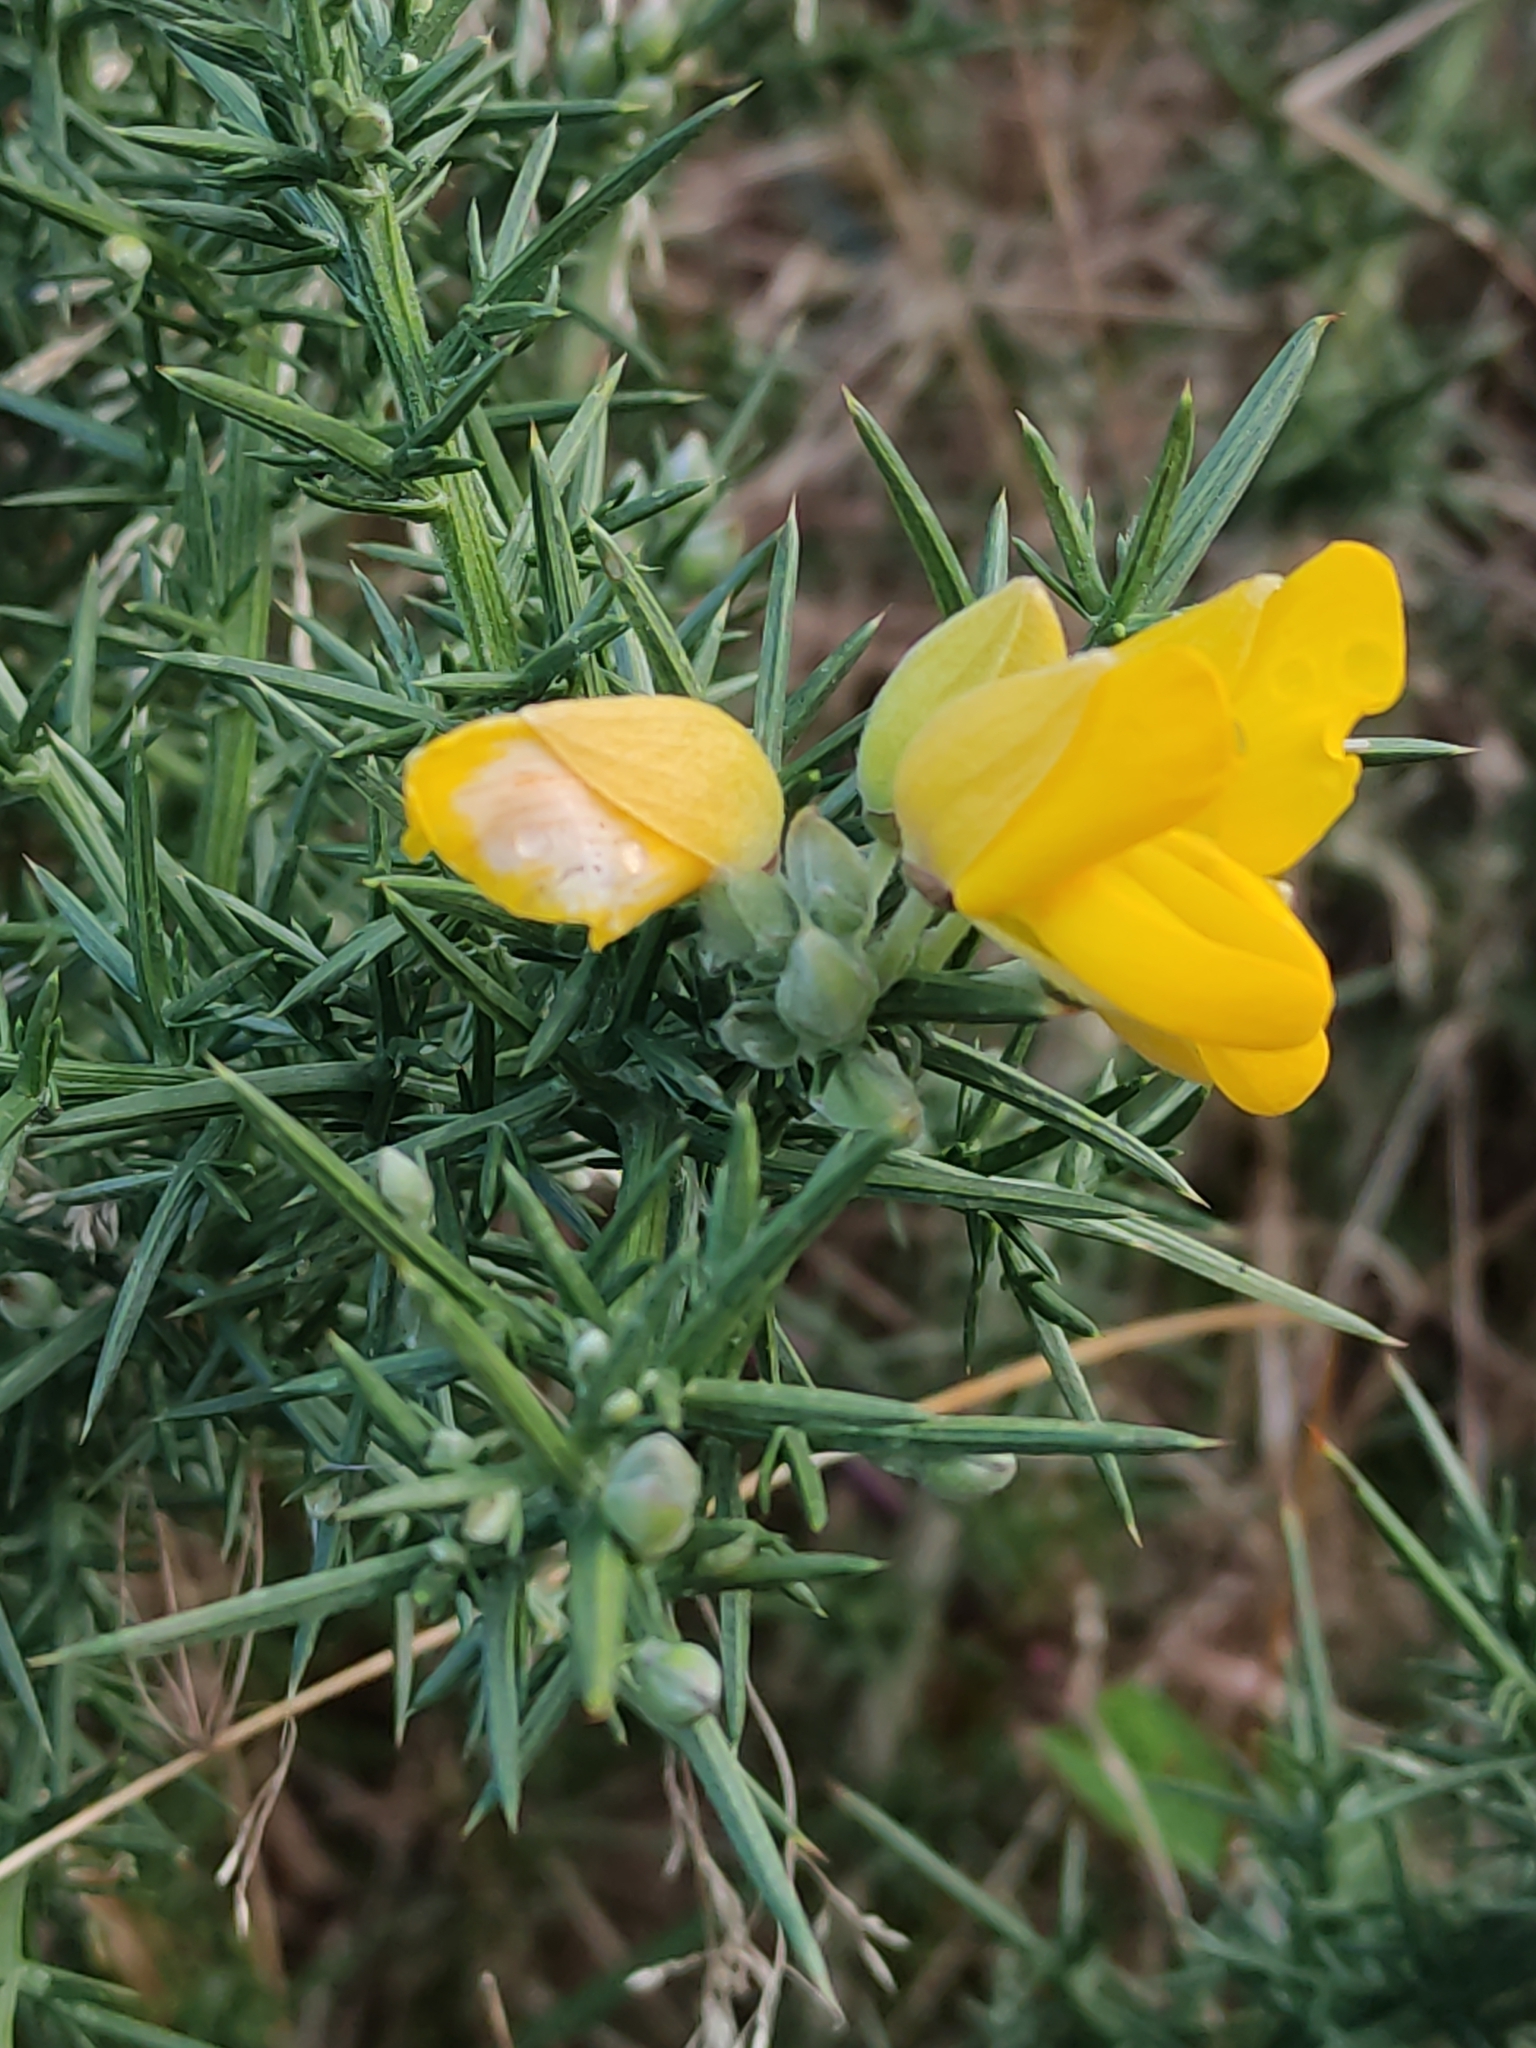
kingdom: Plantae
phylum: Tracheophyta
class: Magnoliopsida
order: Fabales
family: Fabaceae
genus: Ulex
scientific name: Ulex europaeus
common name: Common gorse
